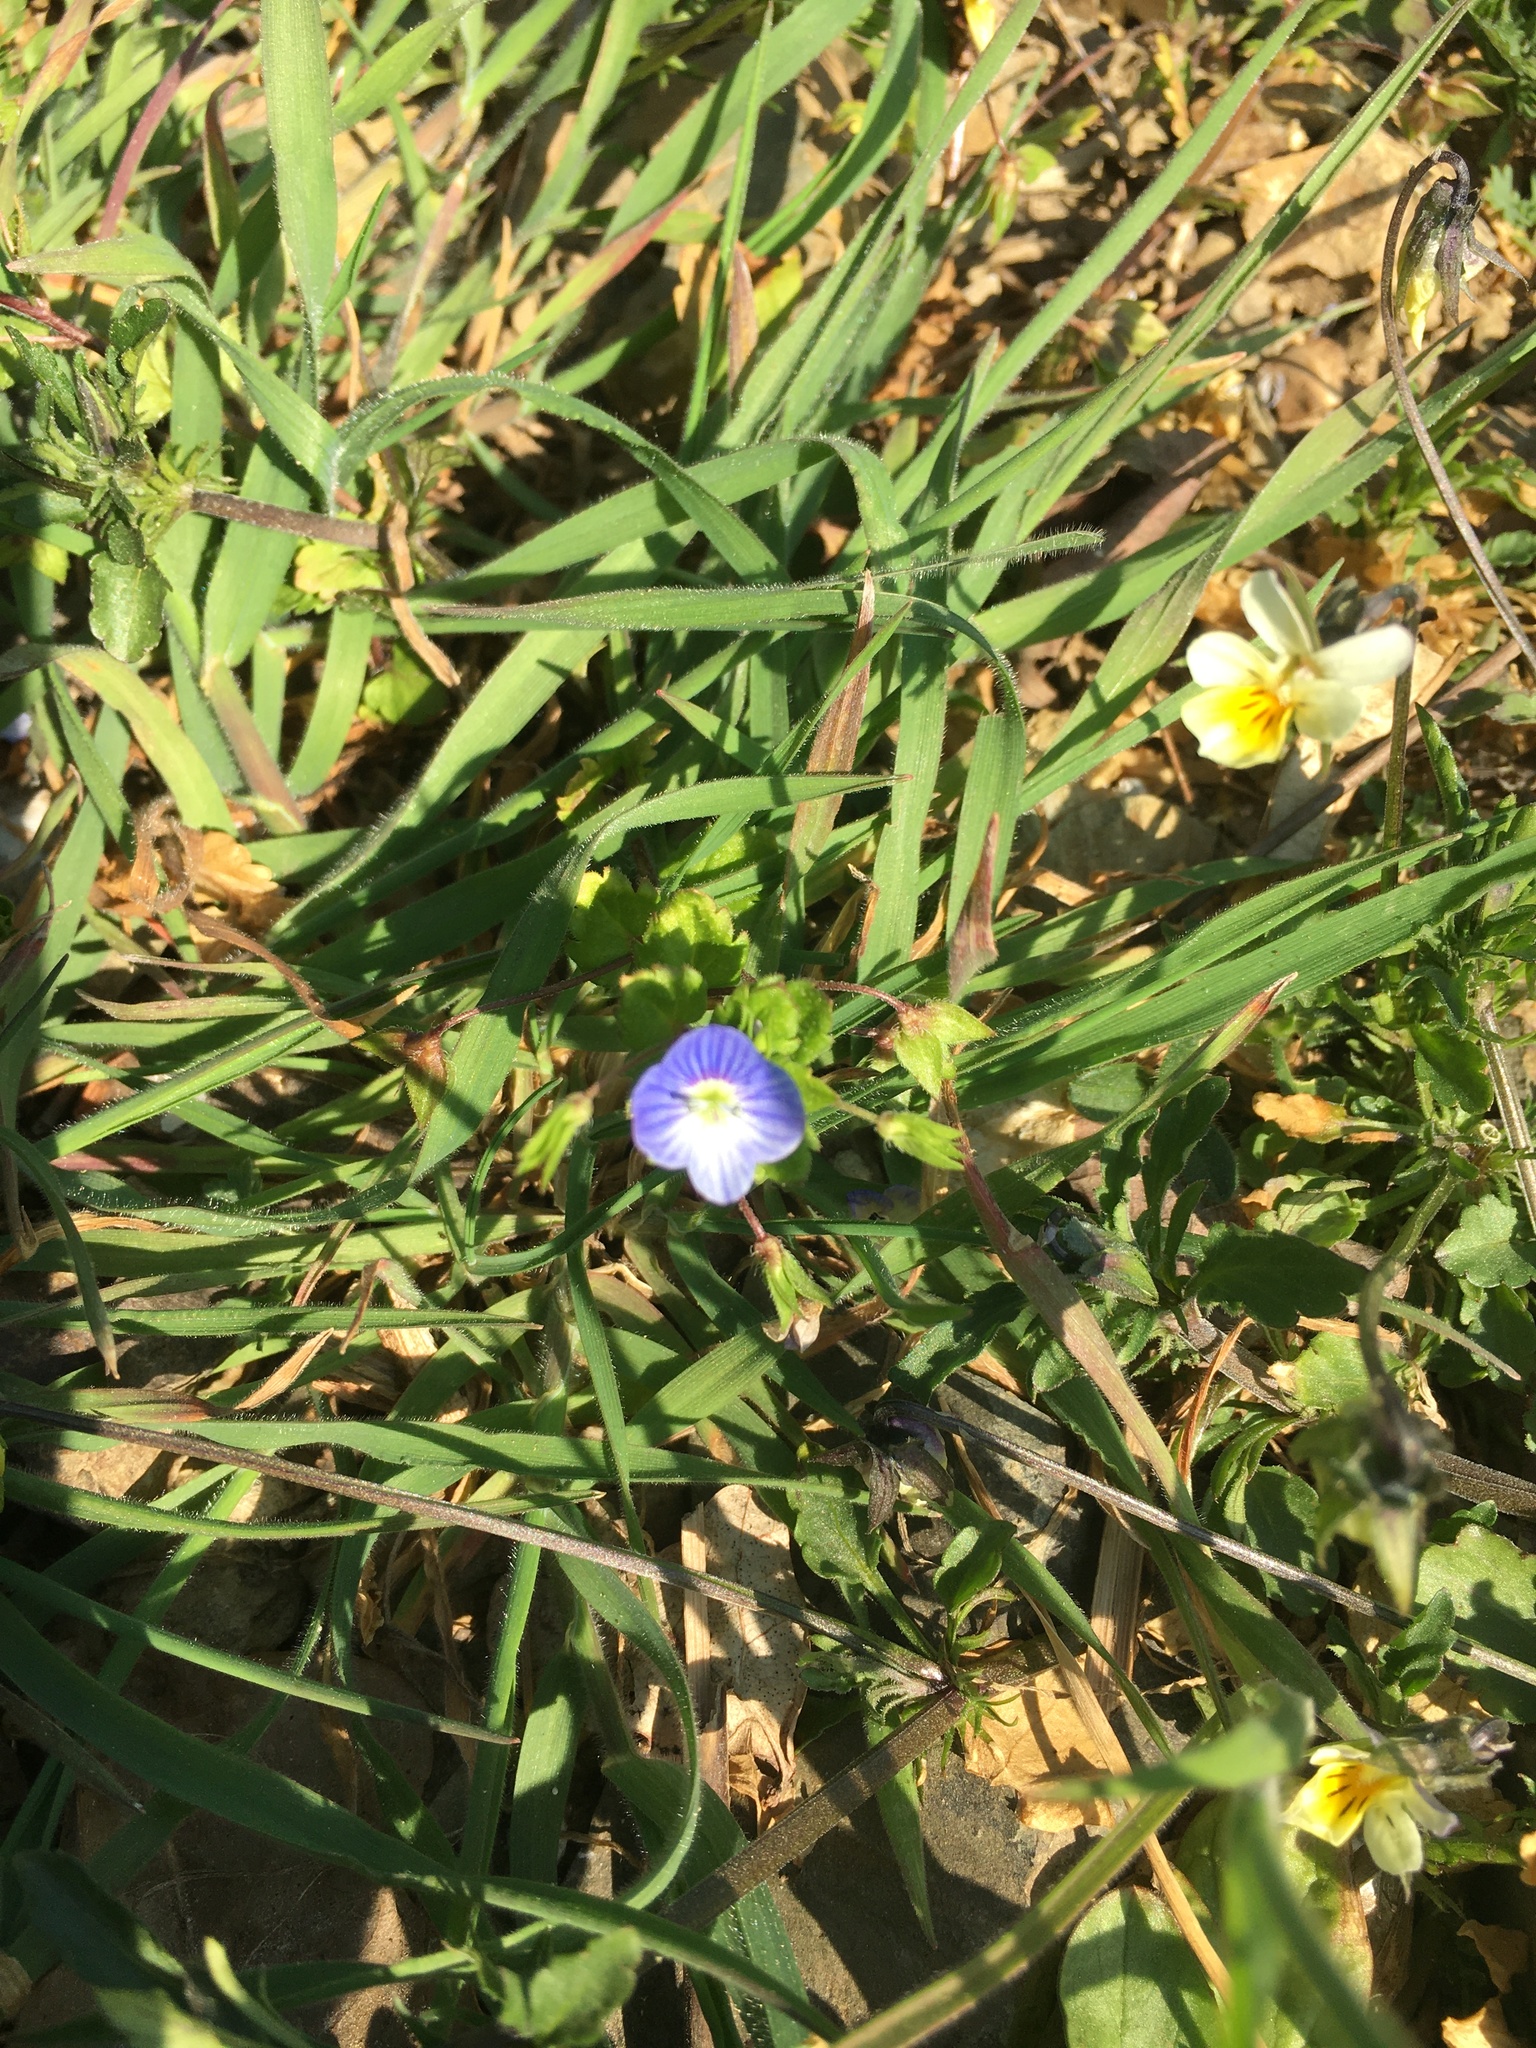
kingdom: Plantae
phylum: Tracheophyta
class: Magnoliopsida
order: Lamiales
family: Plantaginaceae
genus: Veronica
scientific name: Veronica persica
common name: Common field-speedwell
